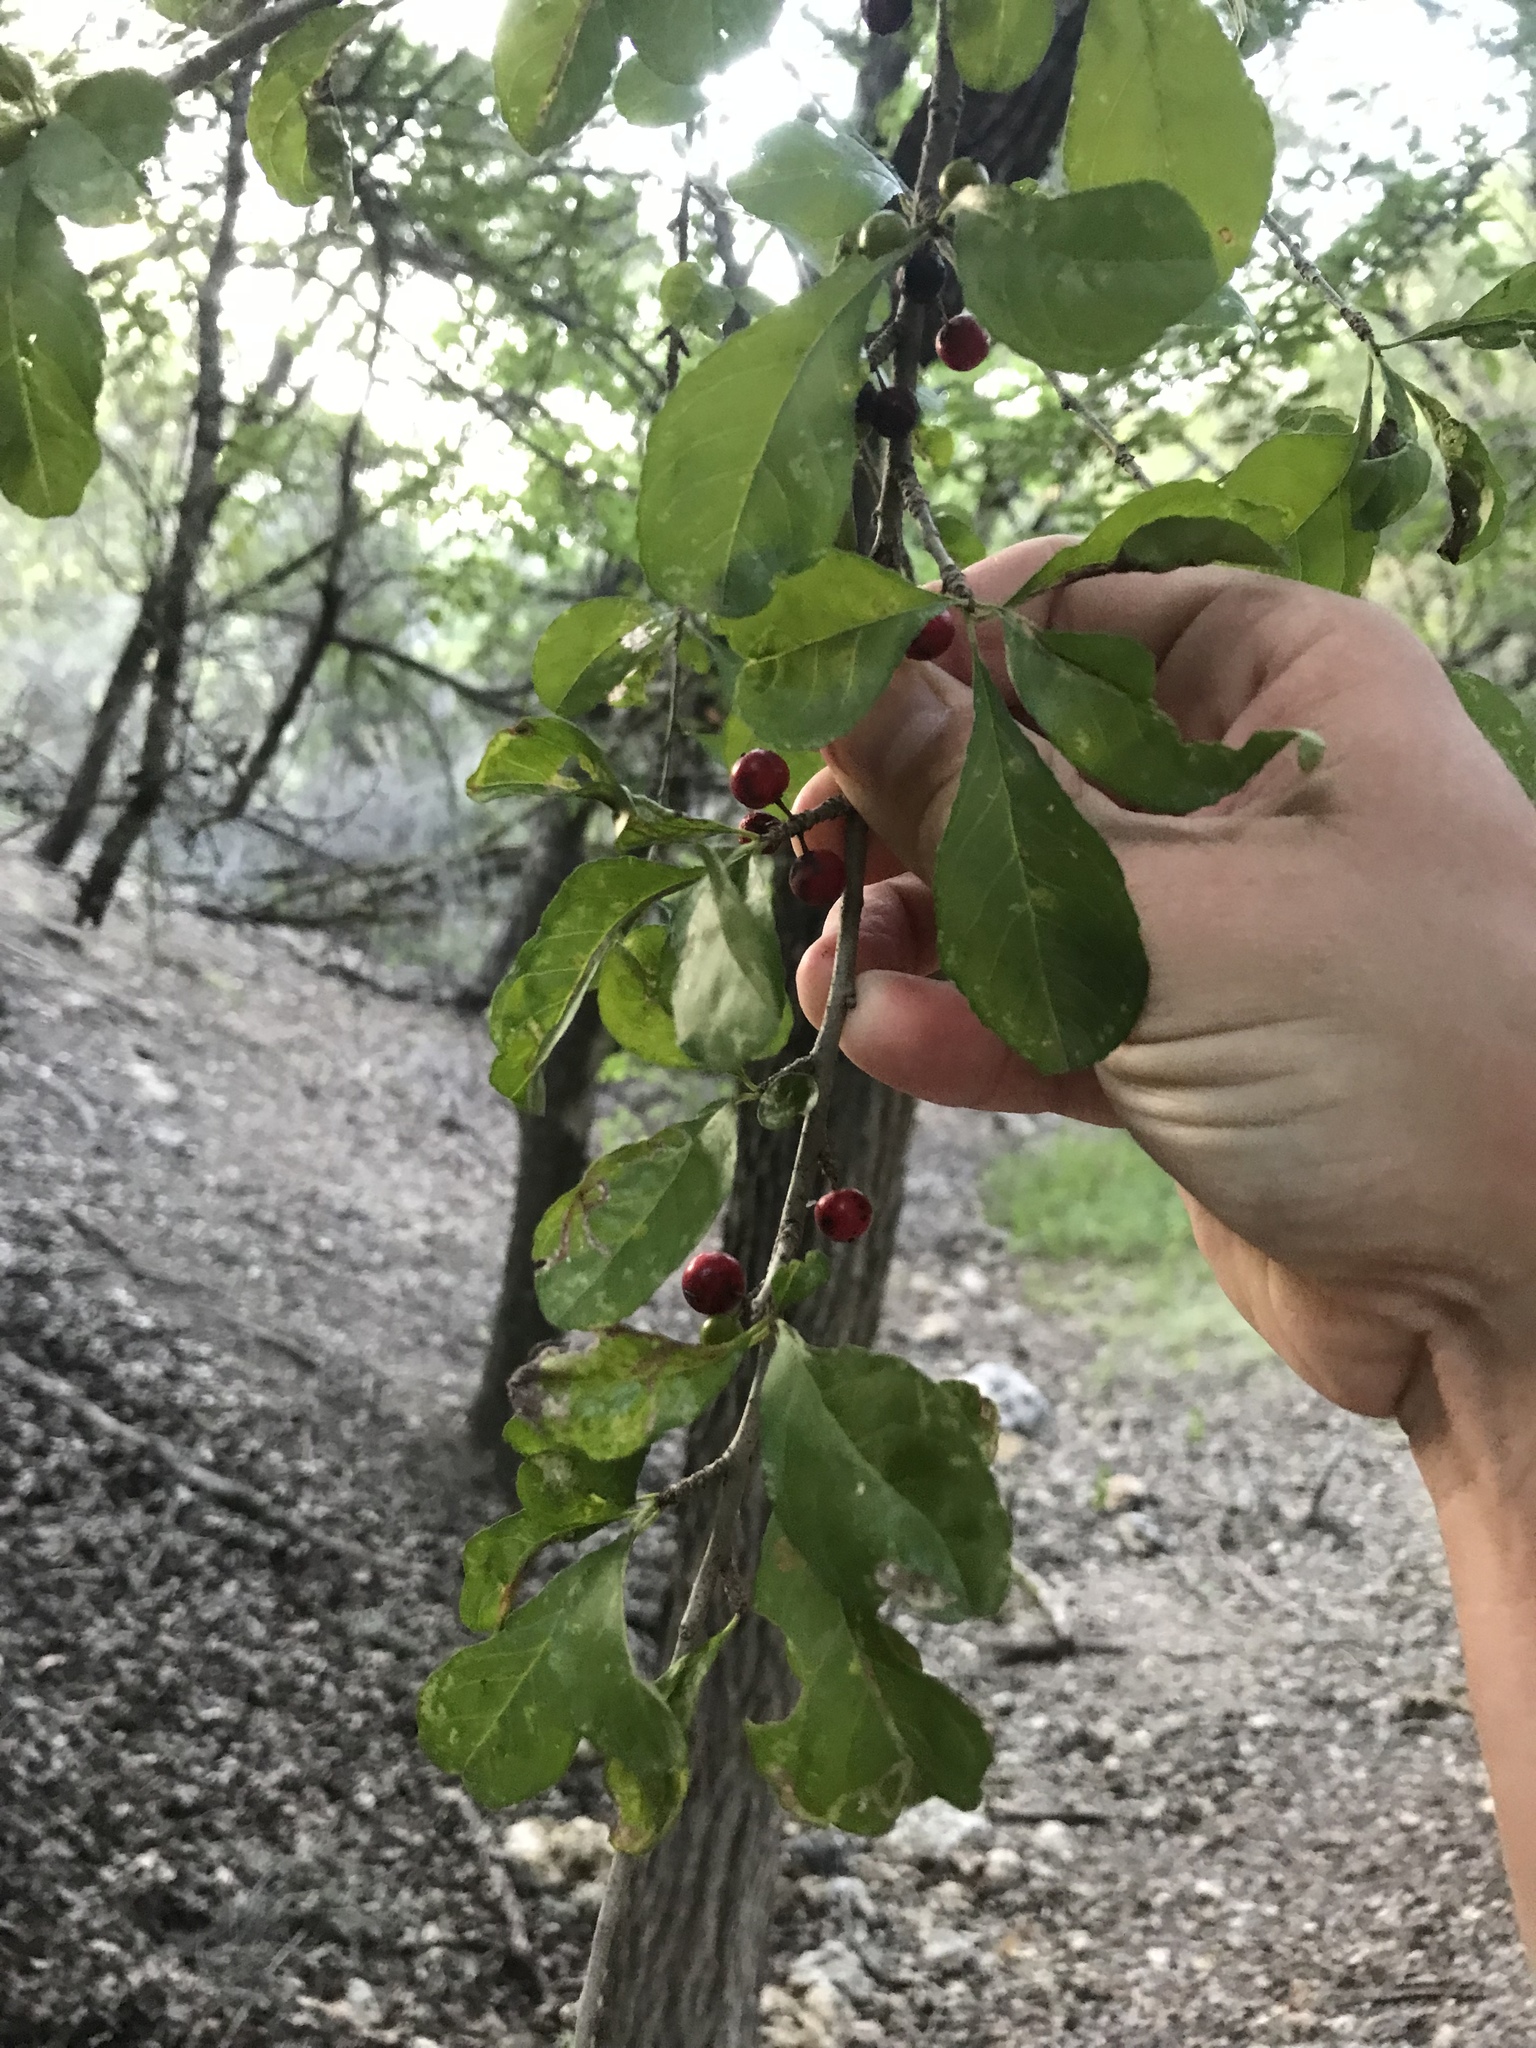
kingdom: Plantae
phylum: Tracheophyta
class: Magnoliopsida
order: Aquifoliales
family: Aquifoliaceae
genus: Ilex
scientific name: Ilex decidua
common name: Possum-haw
